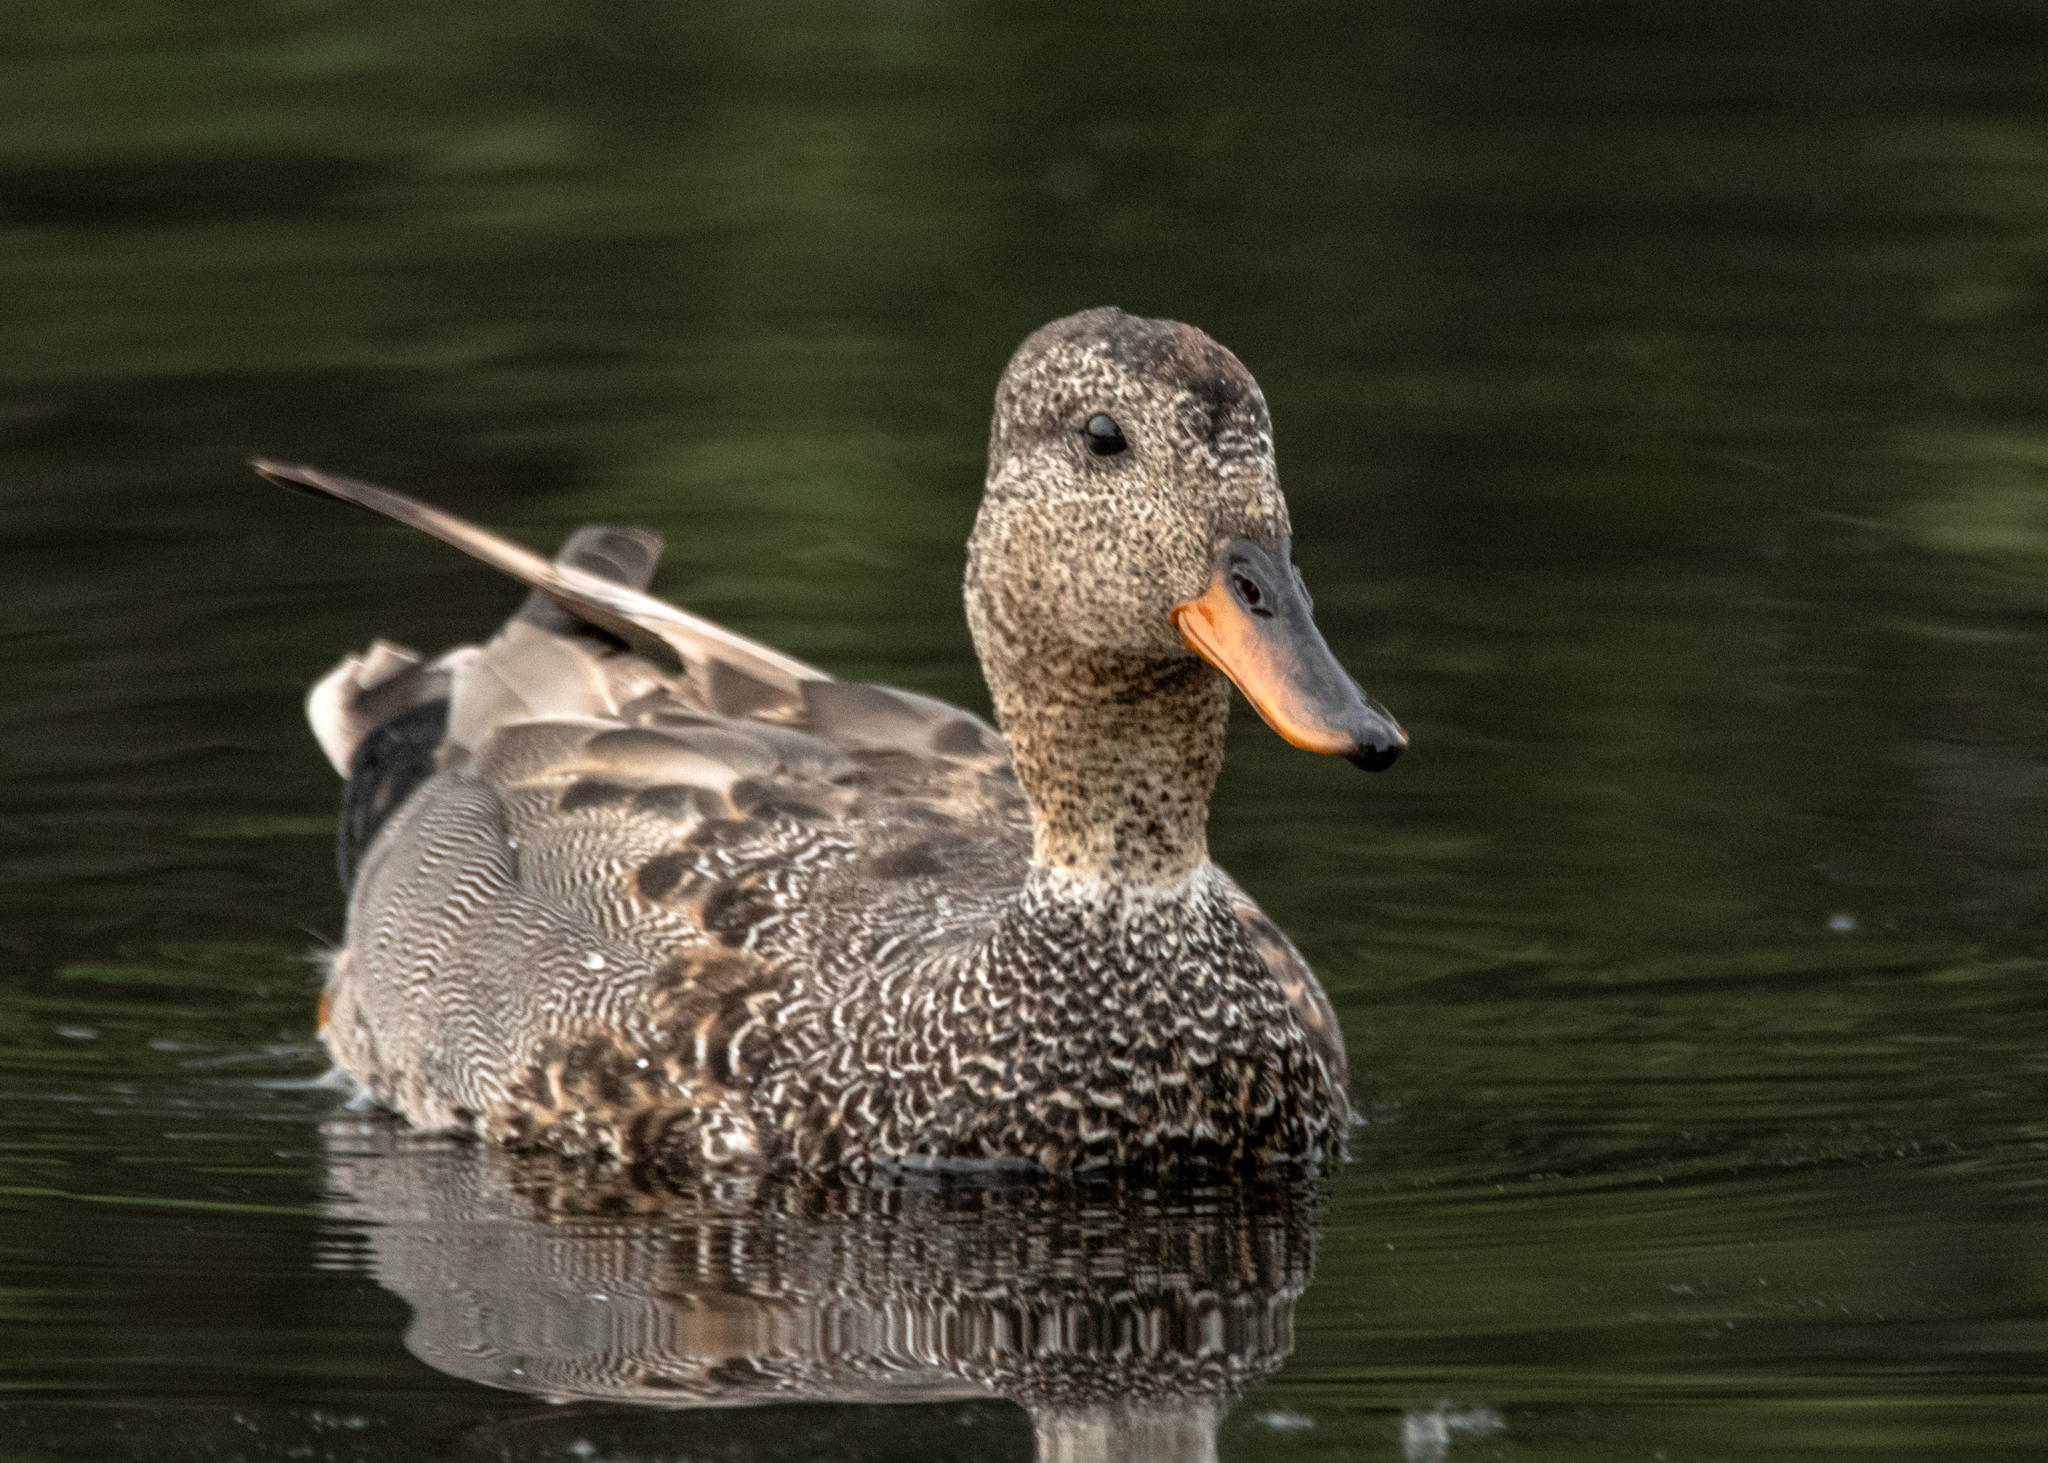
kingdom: Animalia
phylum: Chordata
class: Aves
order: Anseriformes
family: Anatidae
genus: Mareca
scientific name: Mareca strepera
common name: Gadwall
